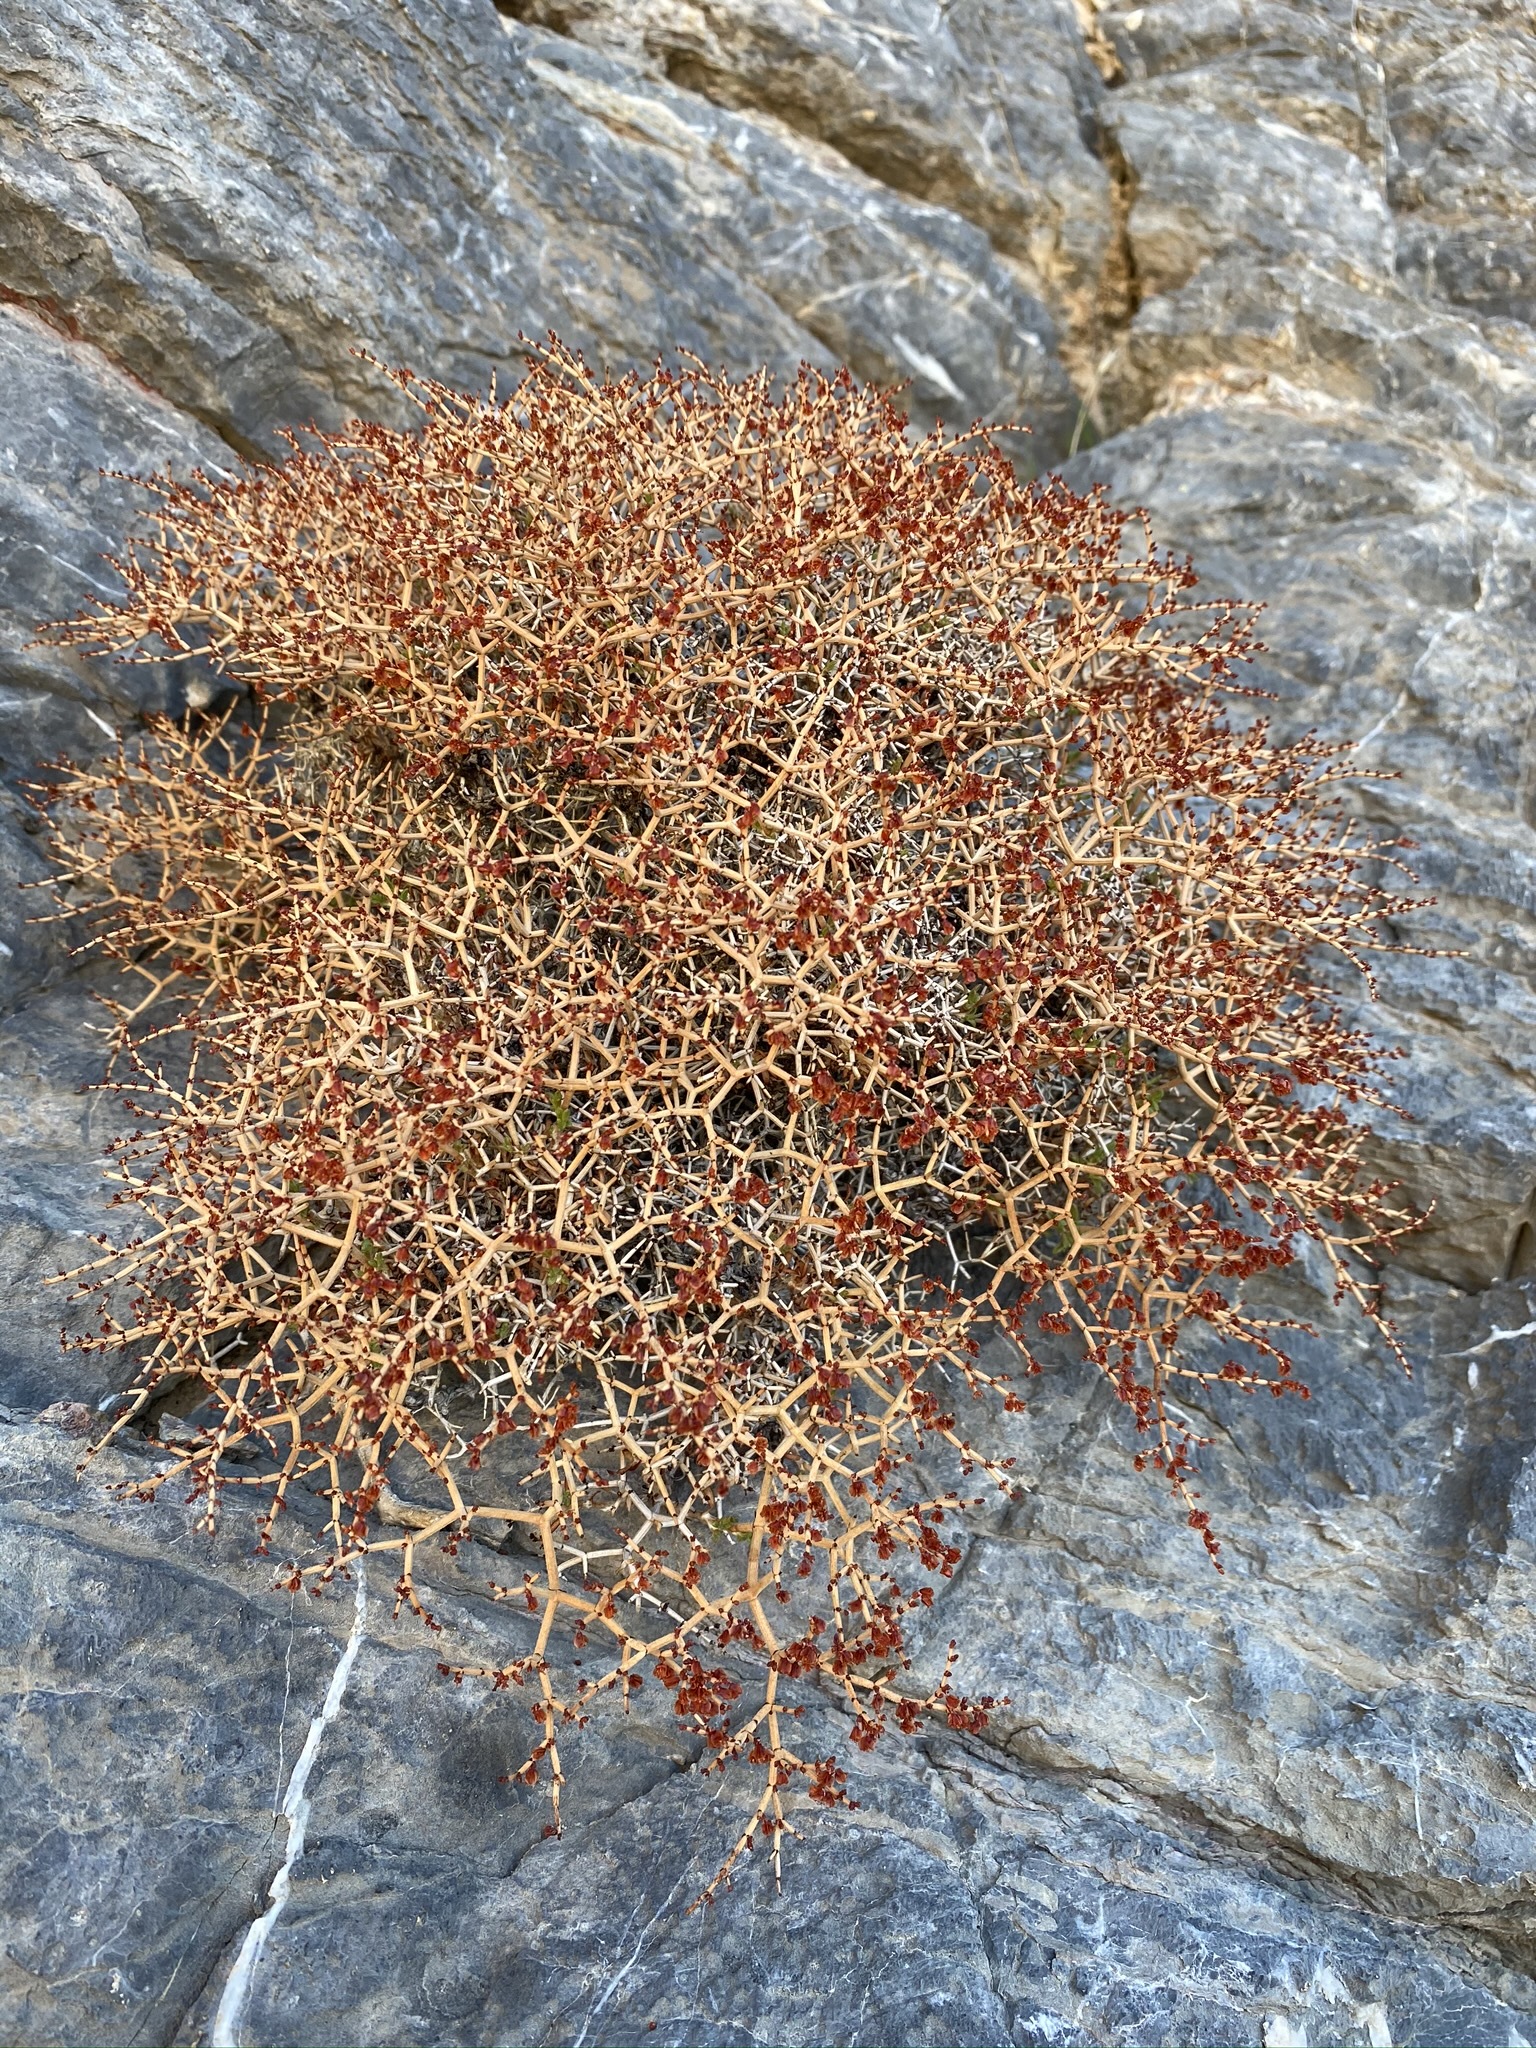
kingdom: Plantae
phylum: Tracheophyta
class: Magnoliopsida
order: Caryophyllales
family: Polygonaceae
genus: Eriogonum
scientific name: Eriogonum heermannii
